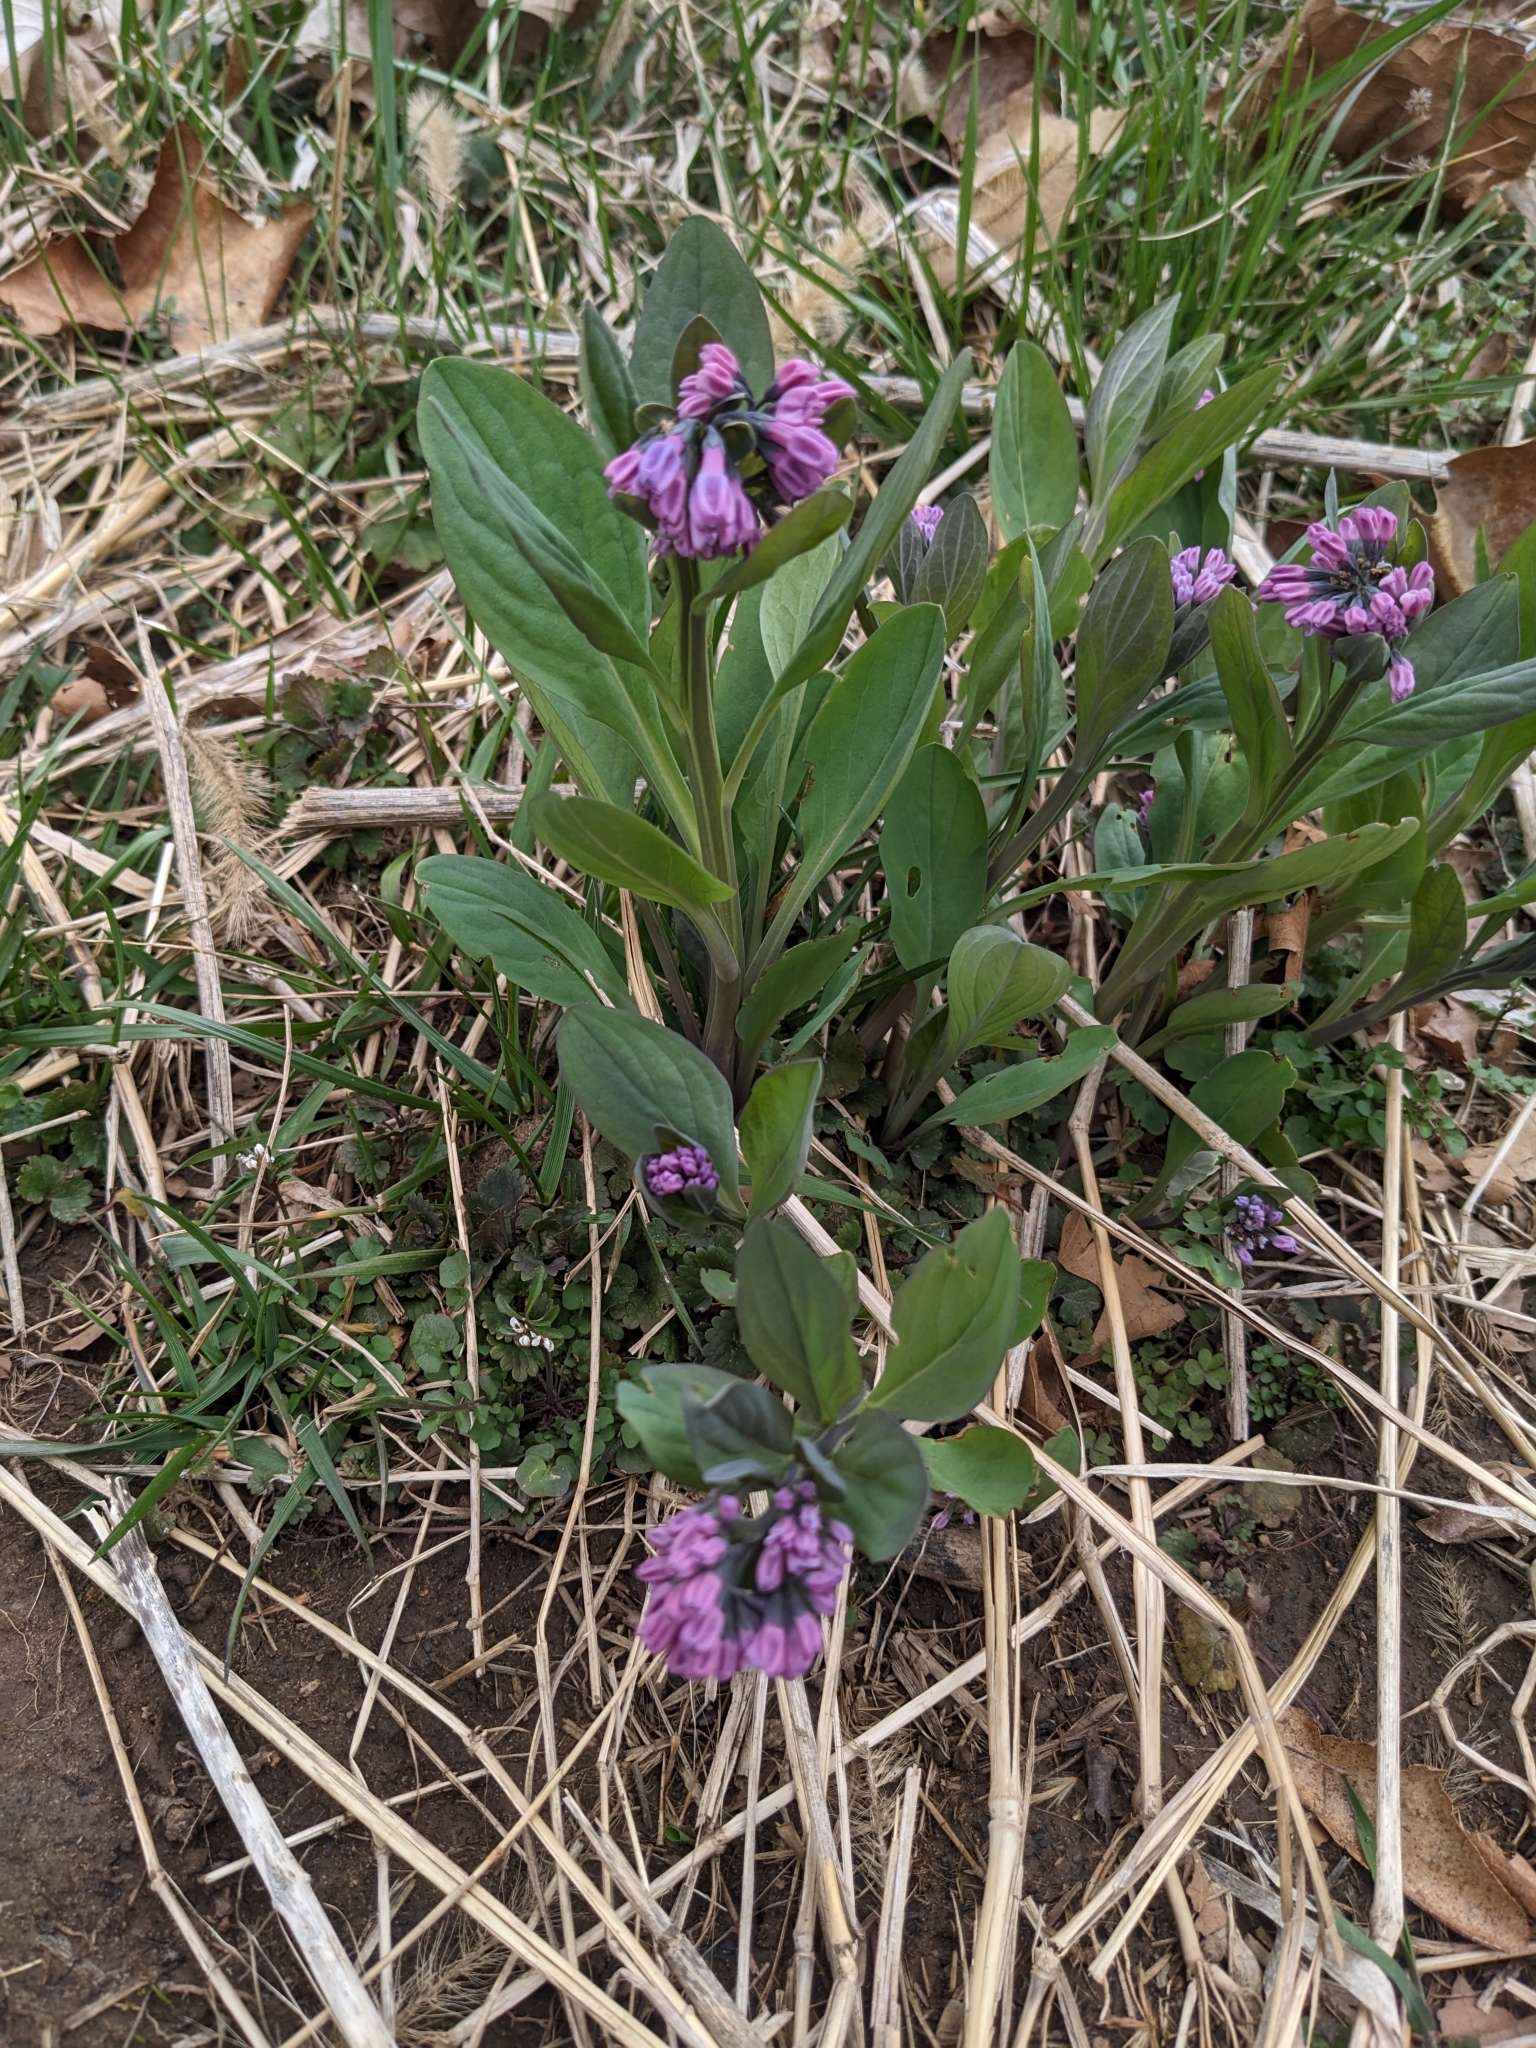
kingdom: Plantae
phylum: Tracheophyta
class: Magnoliopsida
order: Boraginales
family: Boraginaceae
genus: Mertensia
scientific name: Mertensia virginica
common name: Virginia bluebells
